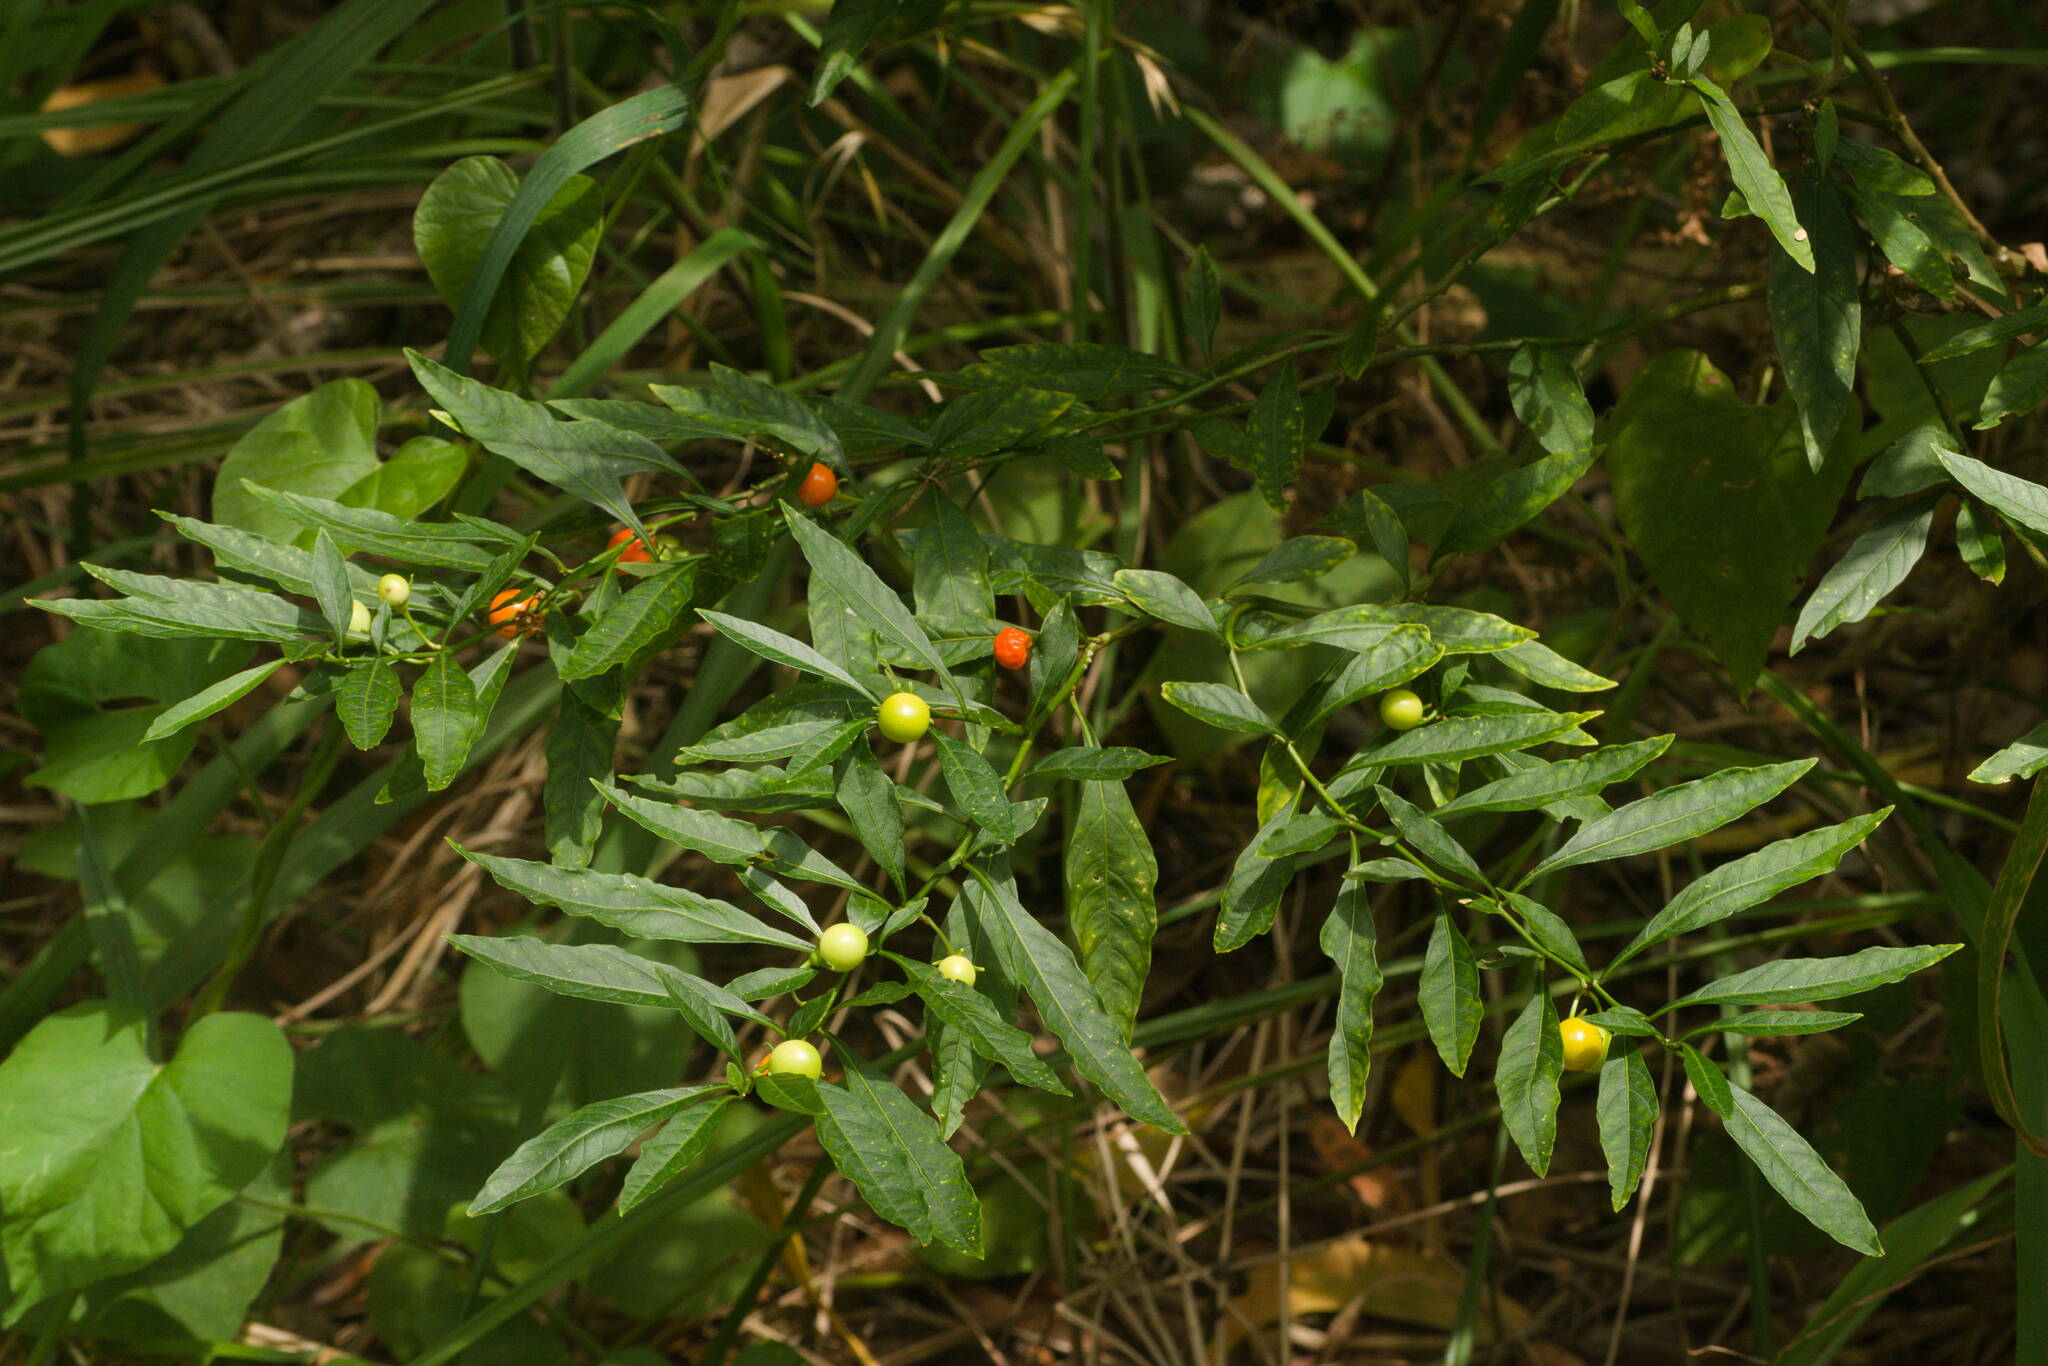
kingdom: Plantae
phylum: Tracheophyta
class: Magnoliopsida
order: Solanales
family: Solanaceae
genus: Solanum
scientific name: Solanum pseudocapsicum
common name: Jerusalem cherry
